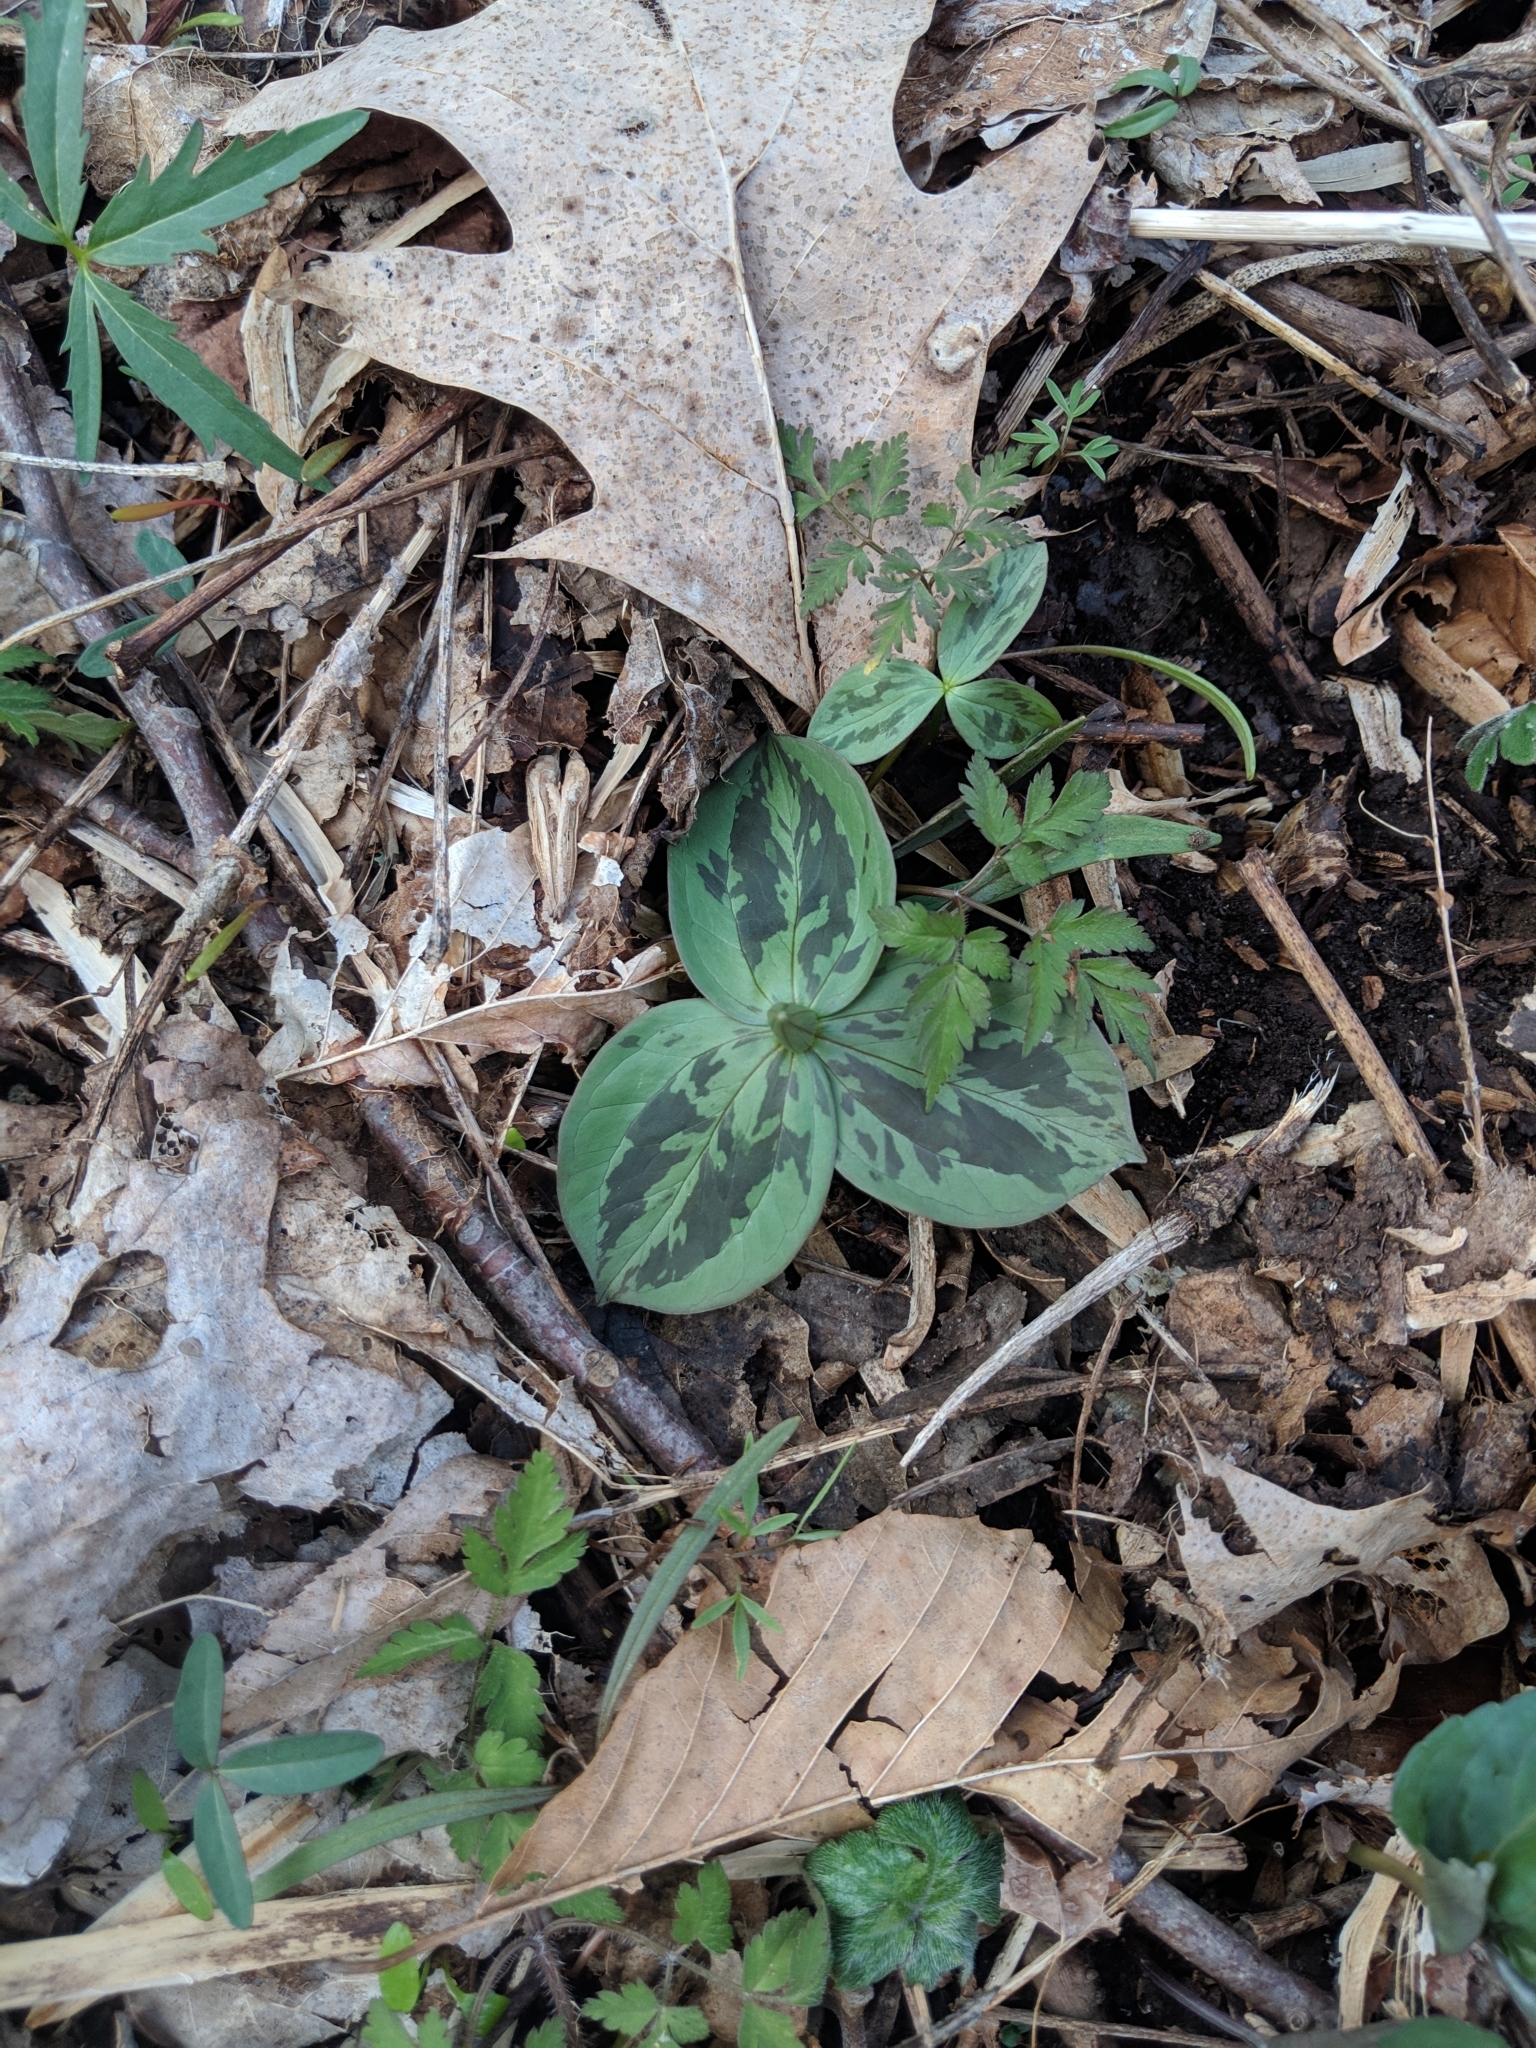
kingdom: Plantae
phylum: Tracheophyta
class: Liliopsida
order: Liliales
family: Melanthiaceae
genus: Trillium
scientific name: Trillium sessile
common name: Sessile trillium
